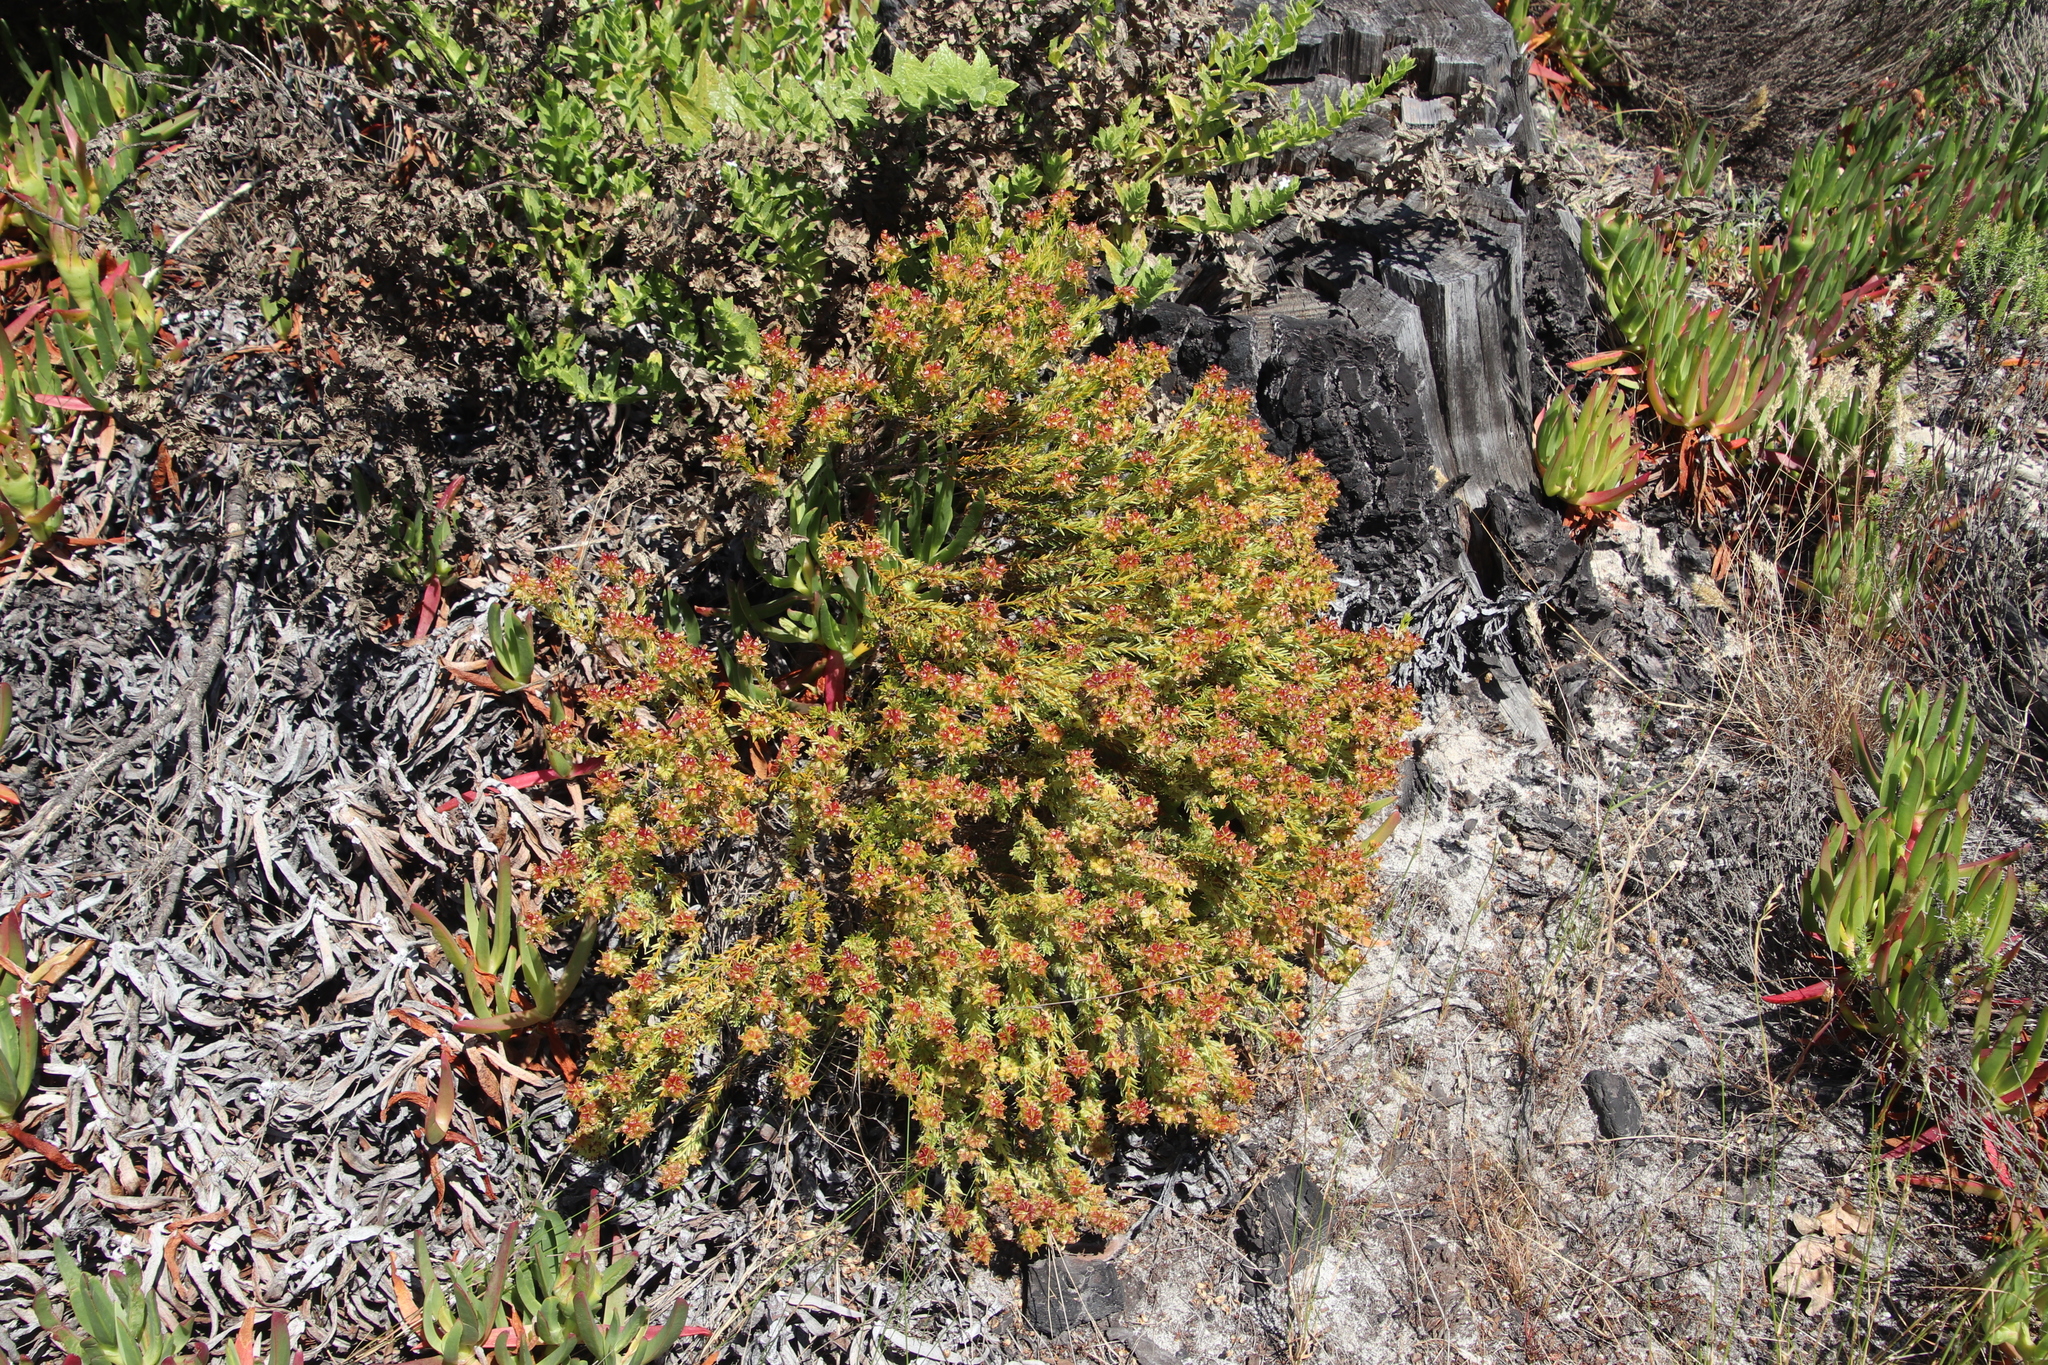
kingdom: Plantae
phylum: Tracheophyta
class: Magnoliopsida
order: Fabales
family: Fabaceae
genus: Aspalathus
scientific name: Aspalathus callosa
